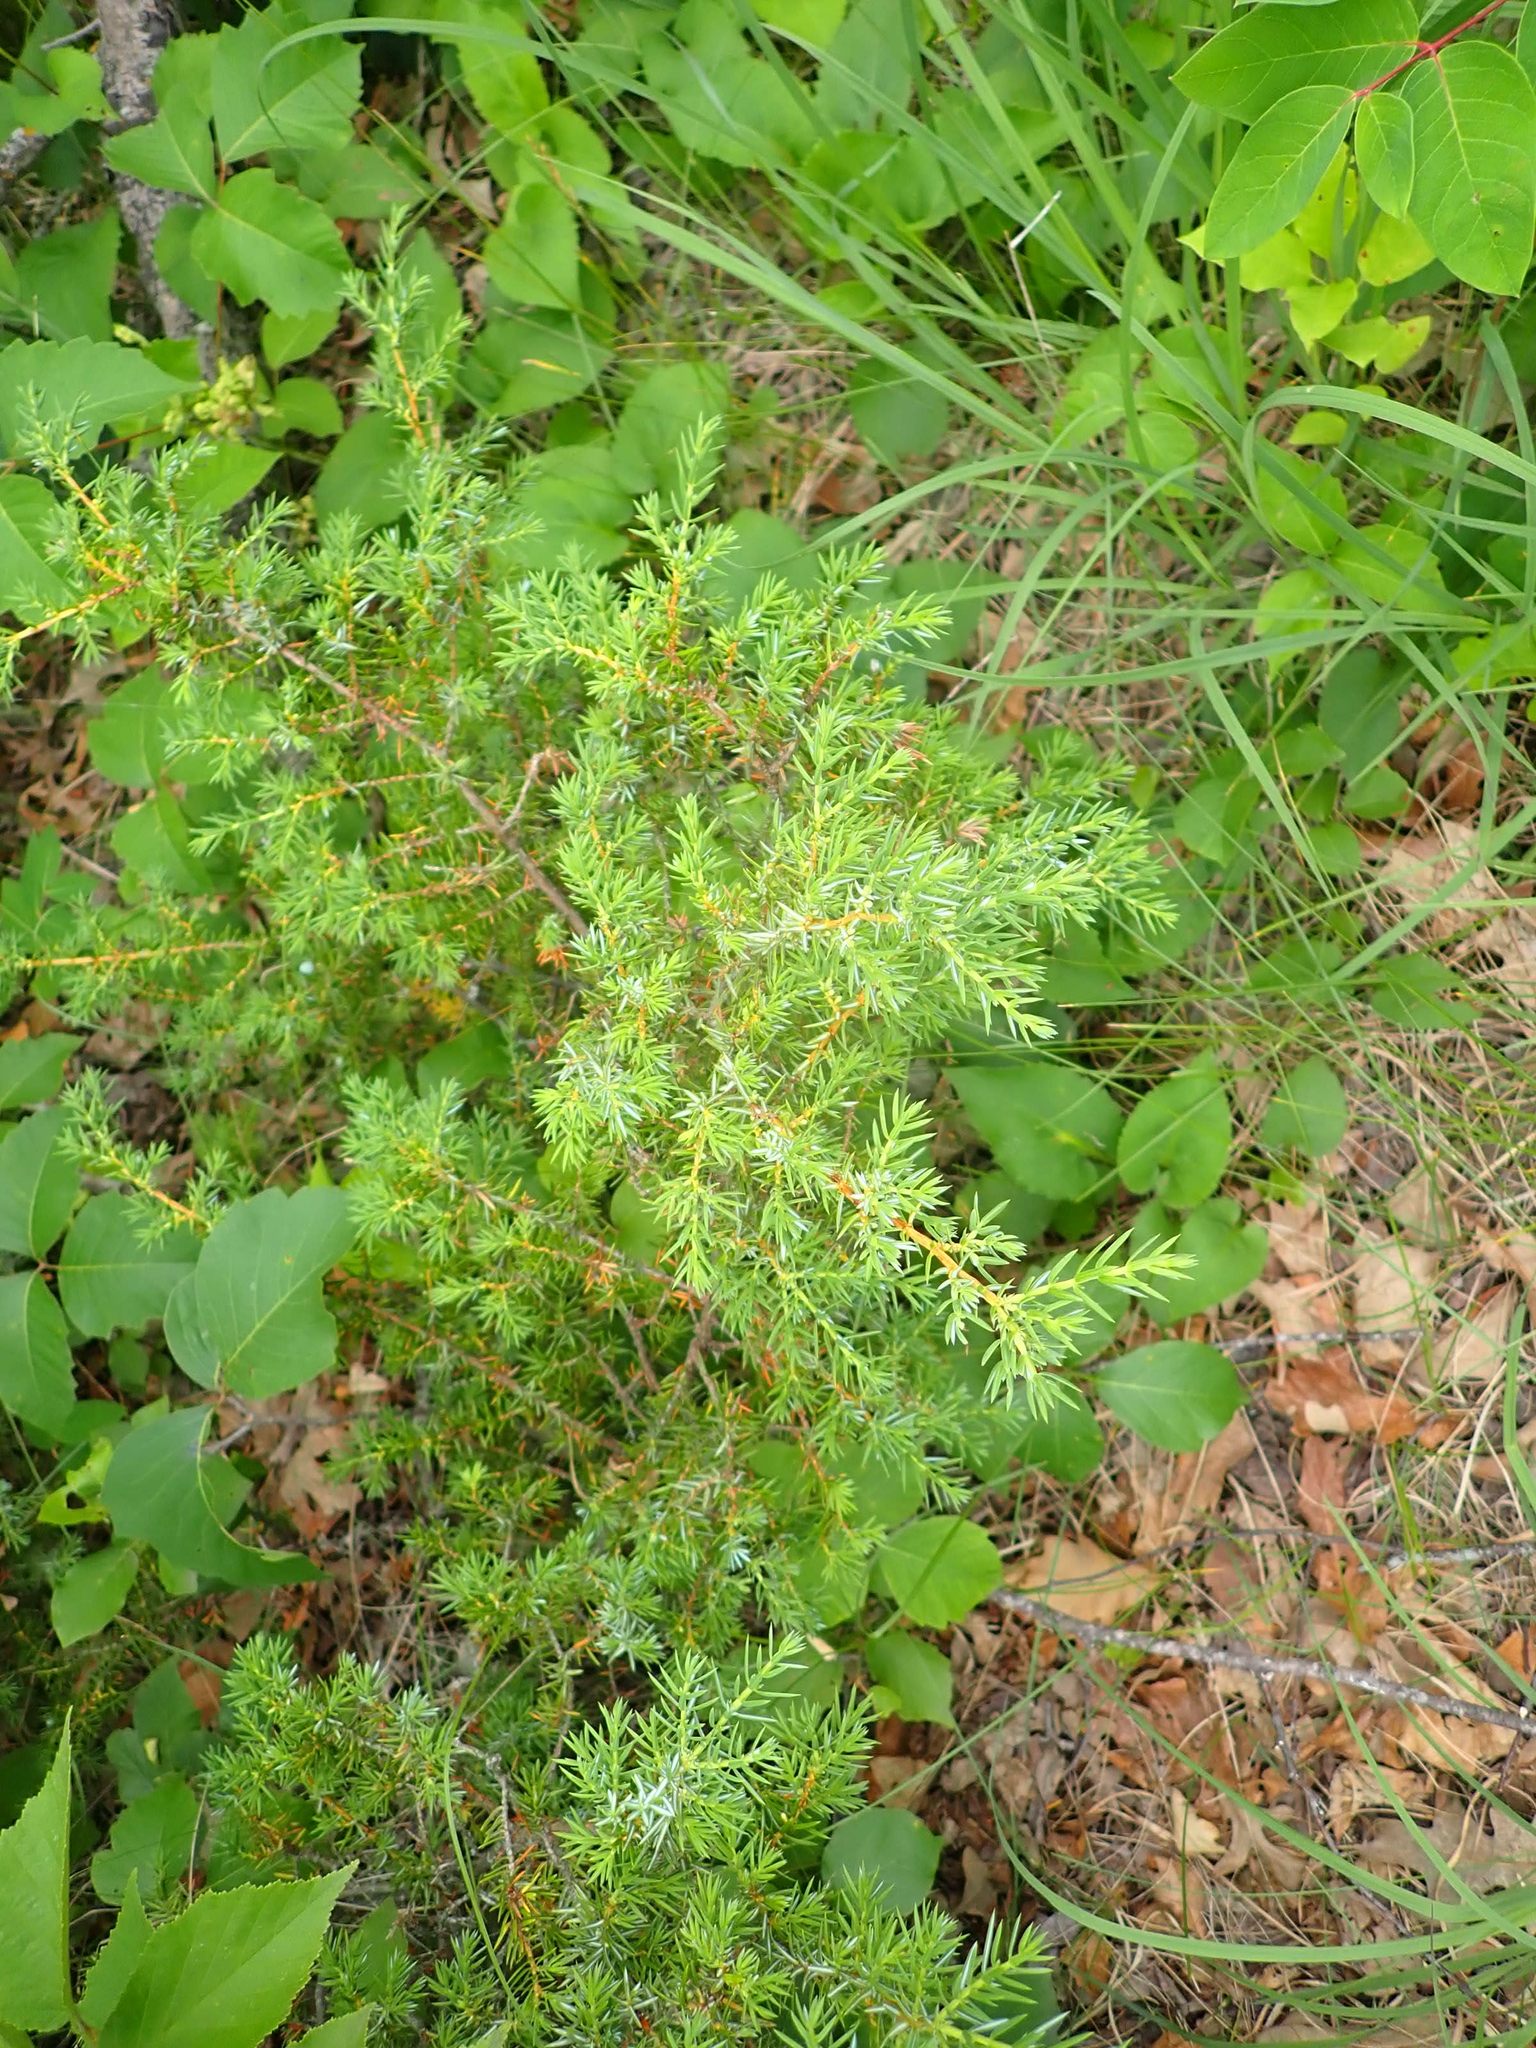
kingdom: Plantae
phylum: Tracheophyta
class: Pinopsida
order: Pinales
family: Cupressaceae
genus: Juniperus
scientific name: Juniperus communis
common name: Common juniper
